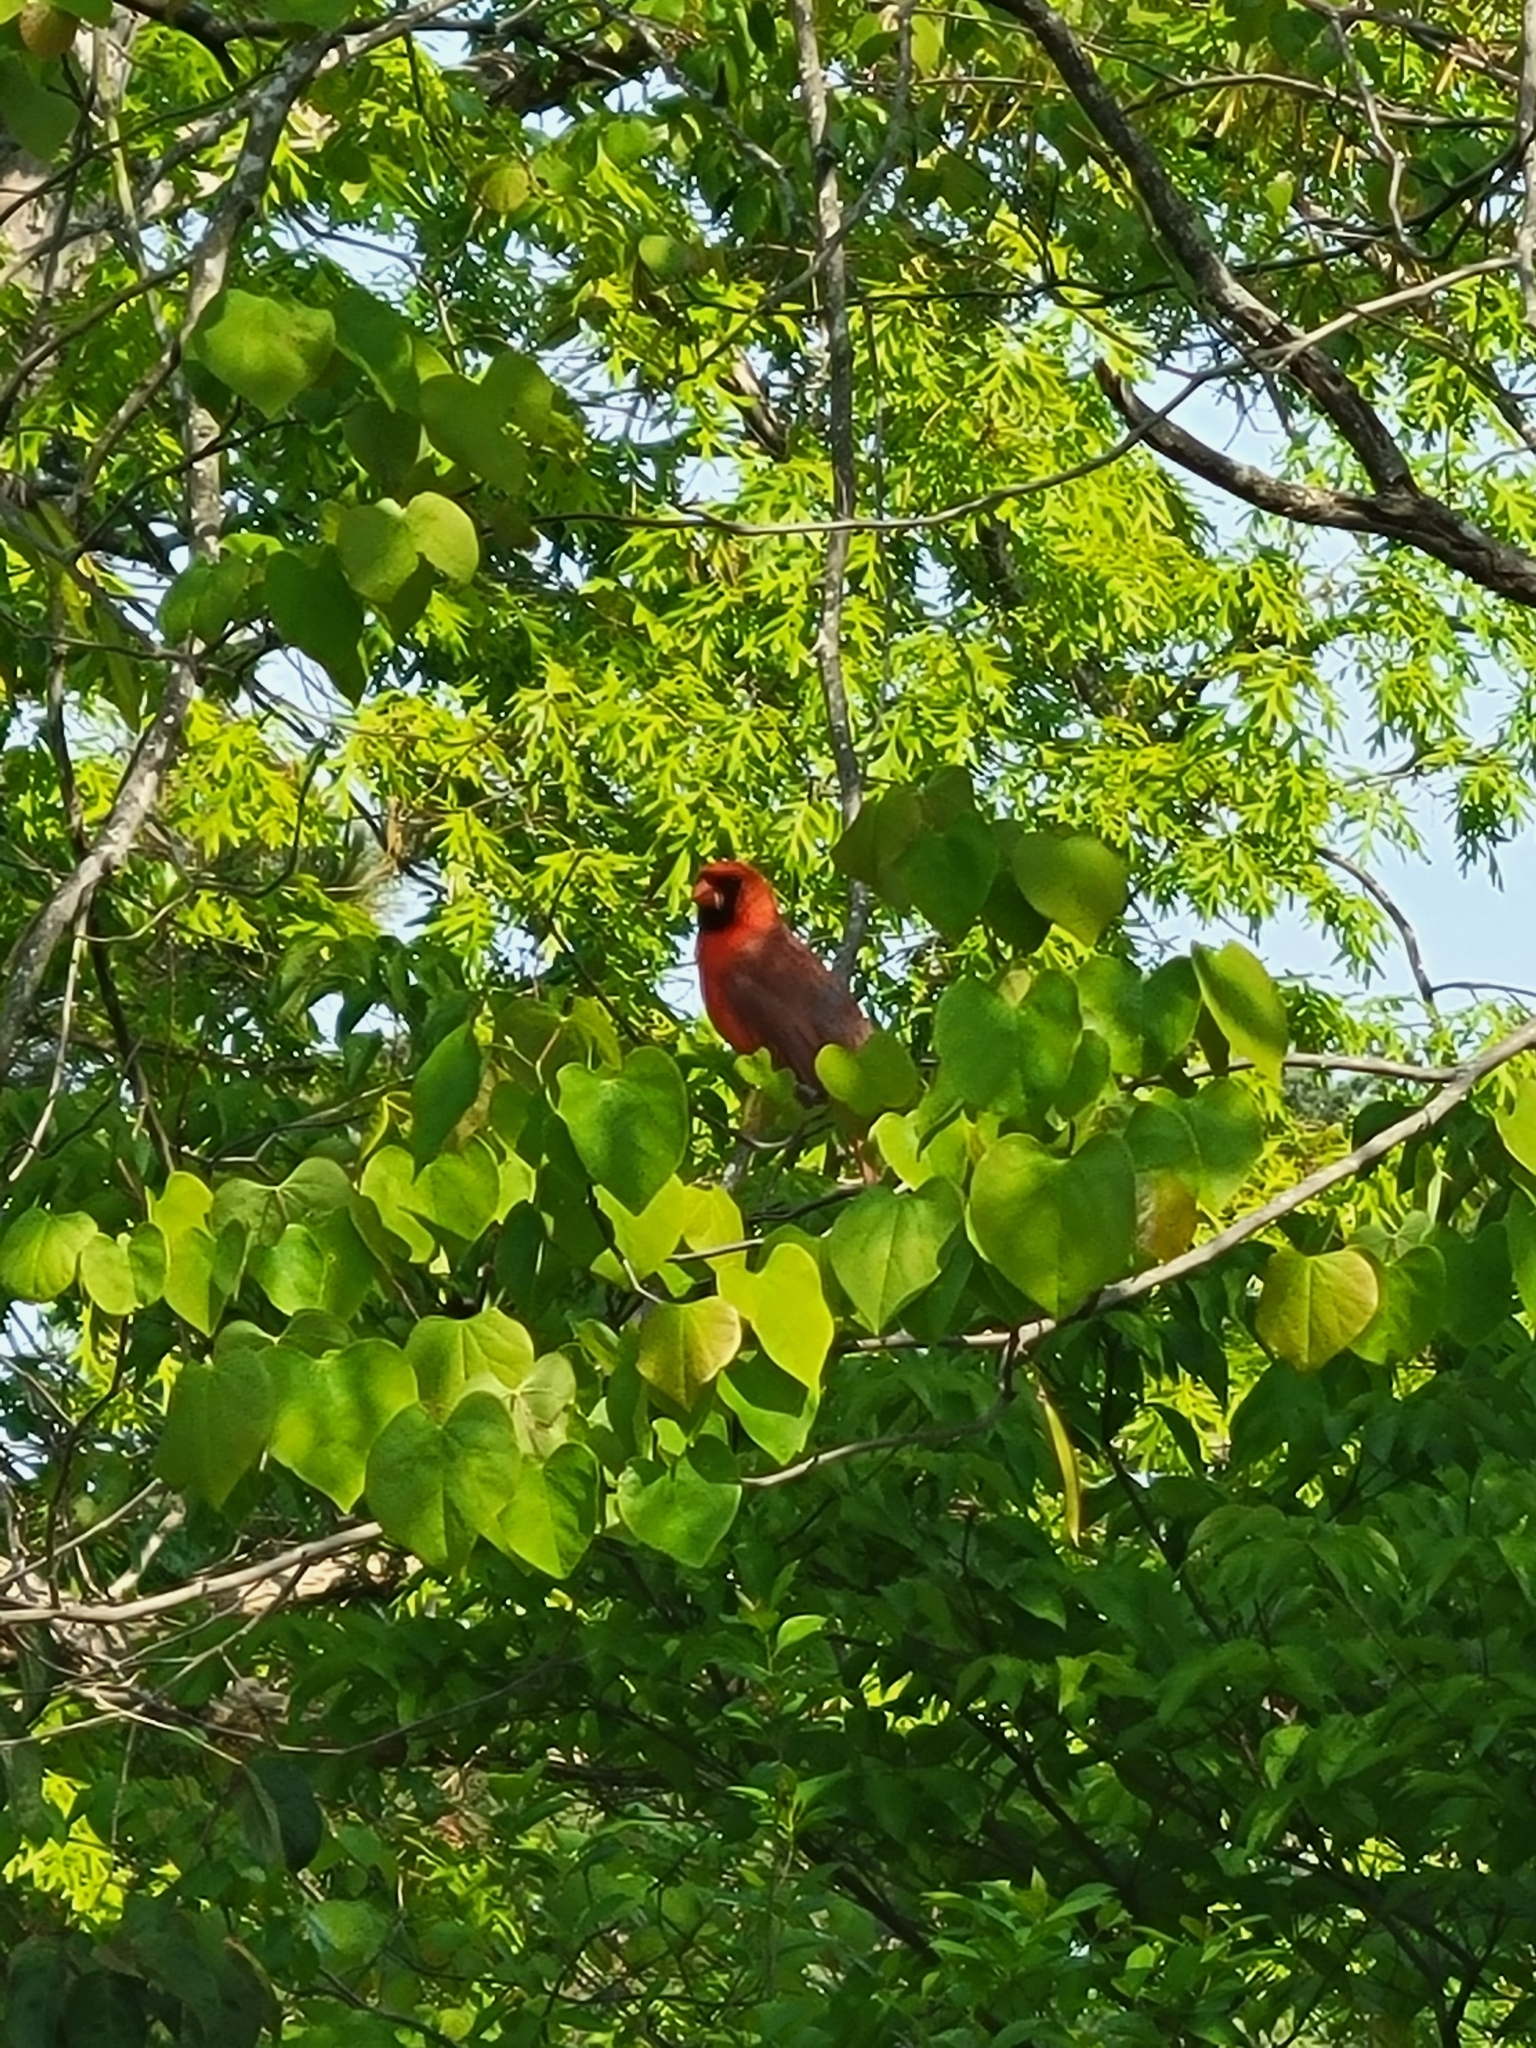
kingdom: Animalia
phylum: Chordata
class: Aves
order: Passeriformes
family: Cardinalidae
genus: Cardinalis
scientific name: Cardinalis cardinalis
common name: Northern cardinal
